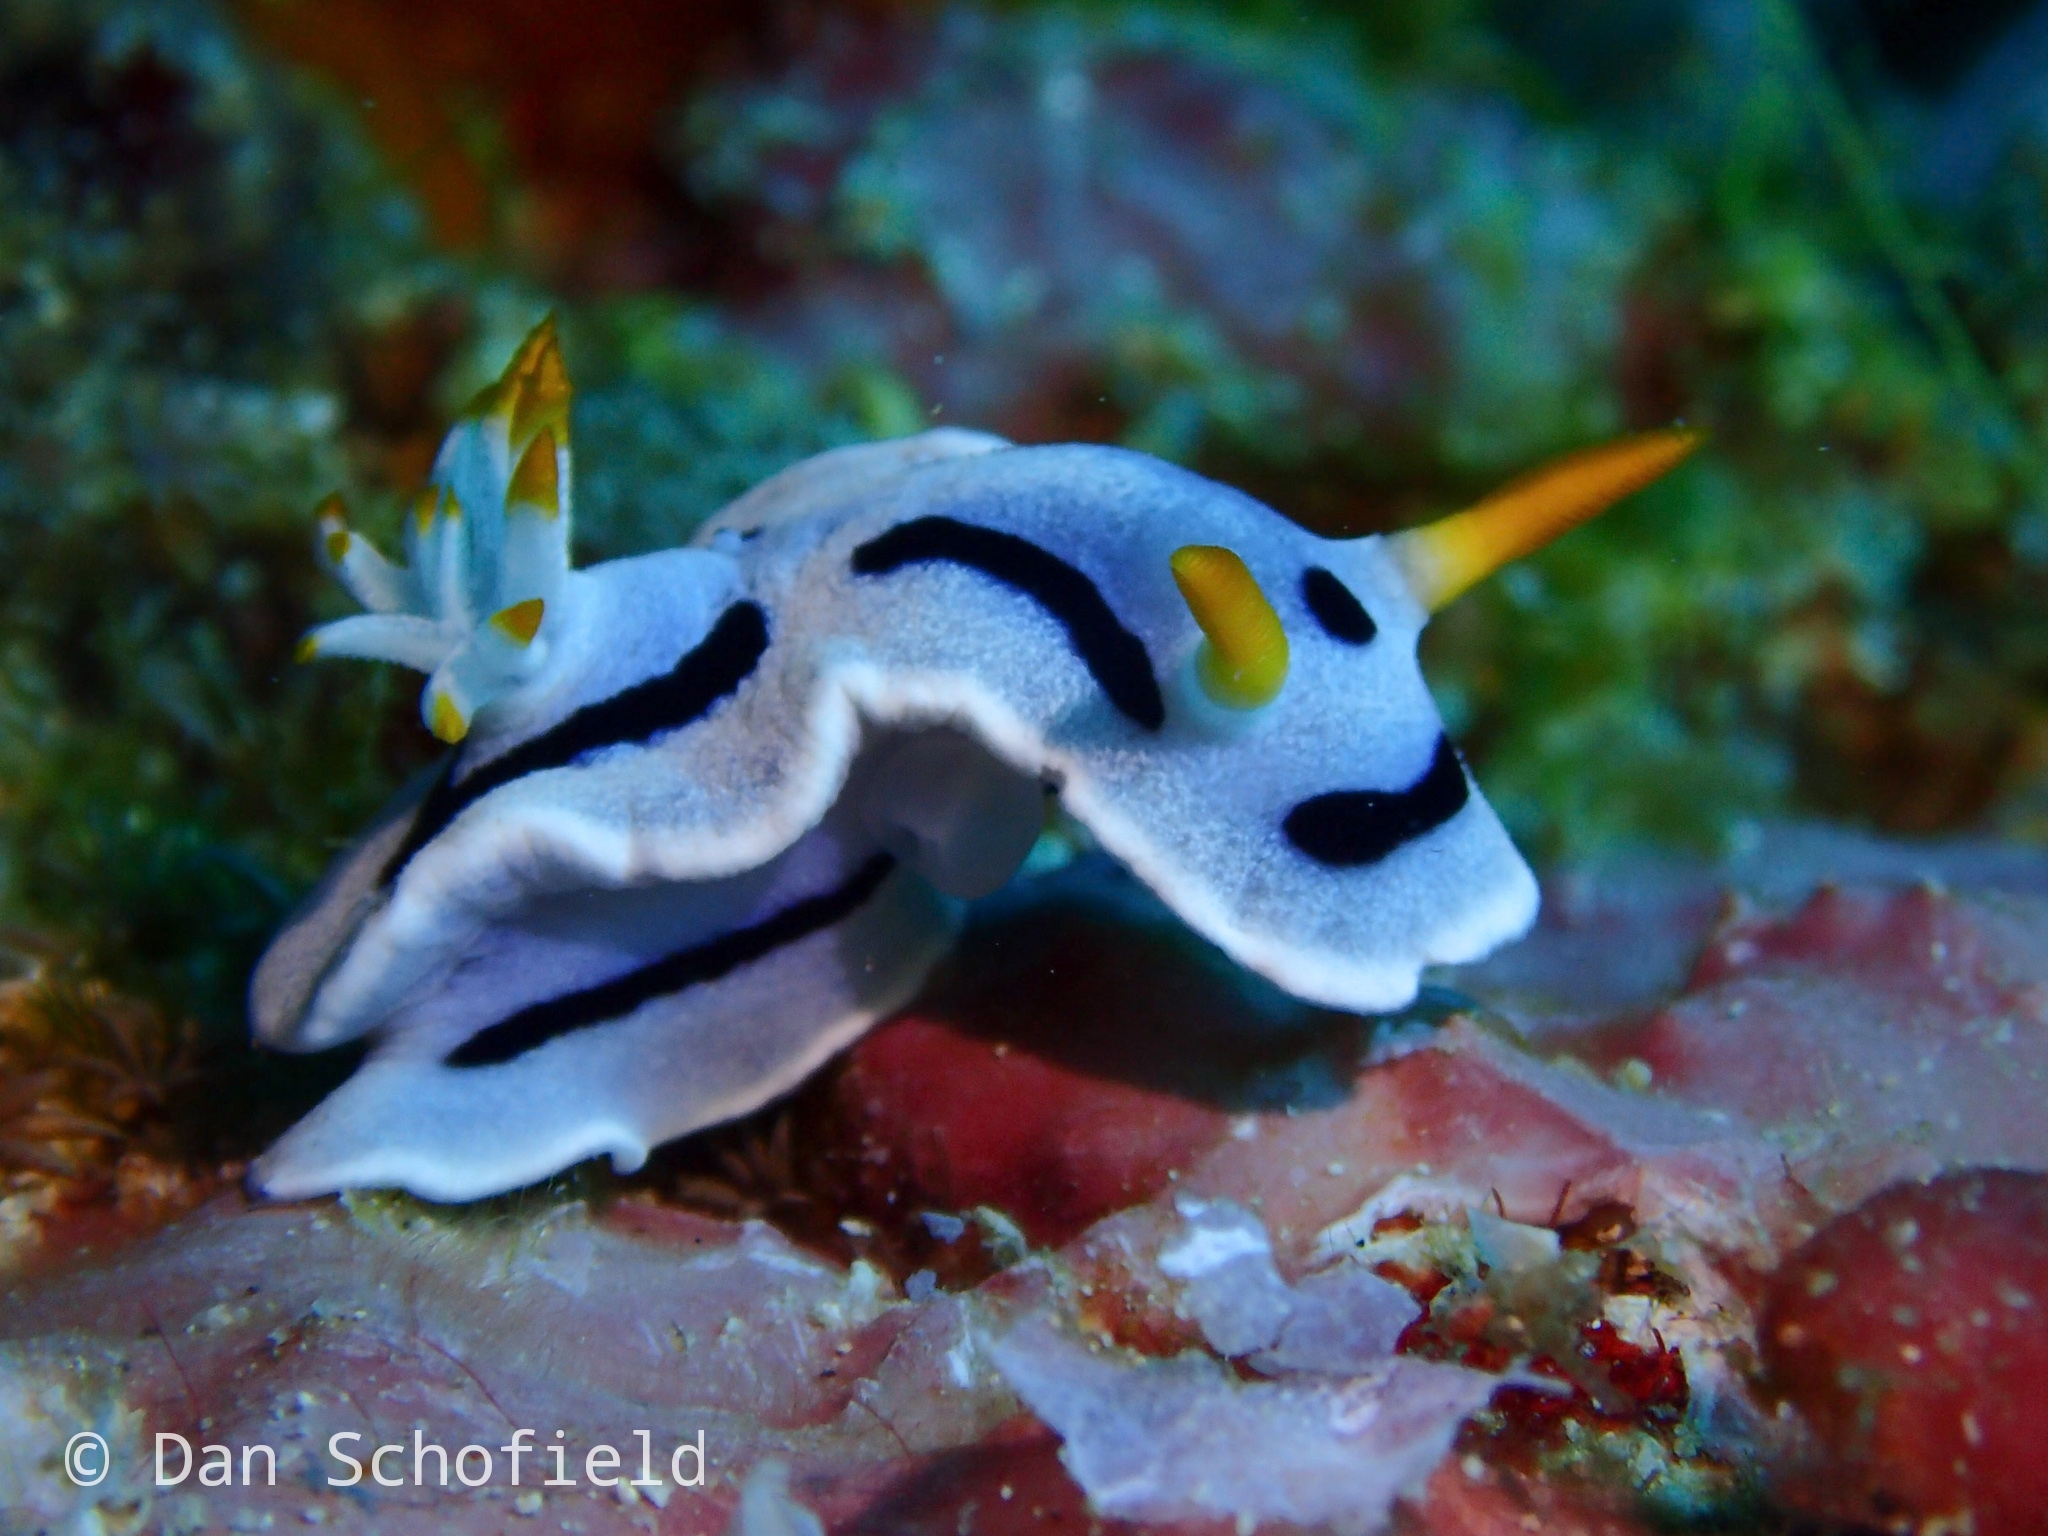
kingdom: Animalia
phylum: Mollusca
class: Gastropoda
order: Nudibranchia
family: Chromodorididae
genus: Chromodoris
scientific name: Chromodoris alcalai
